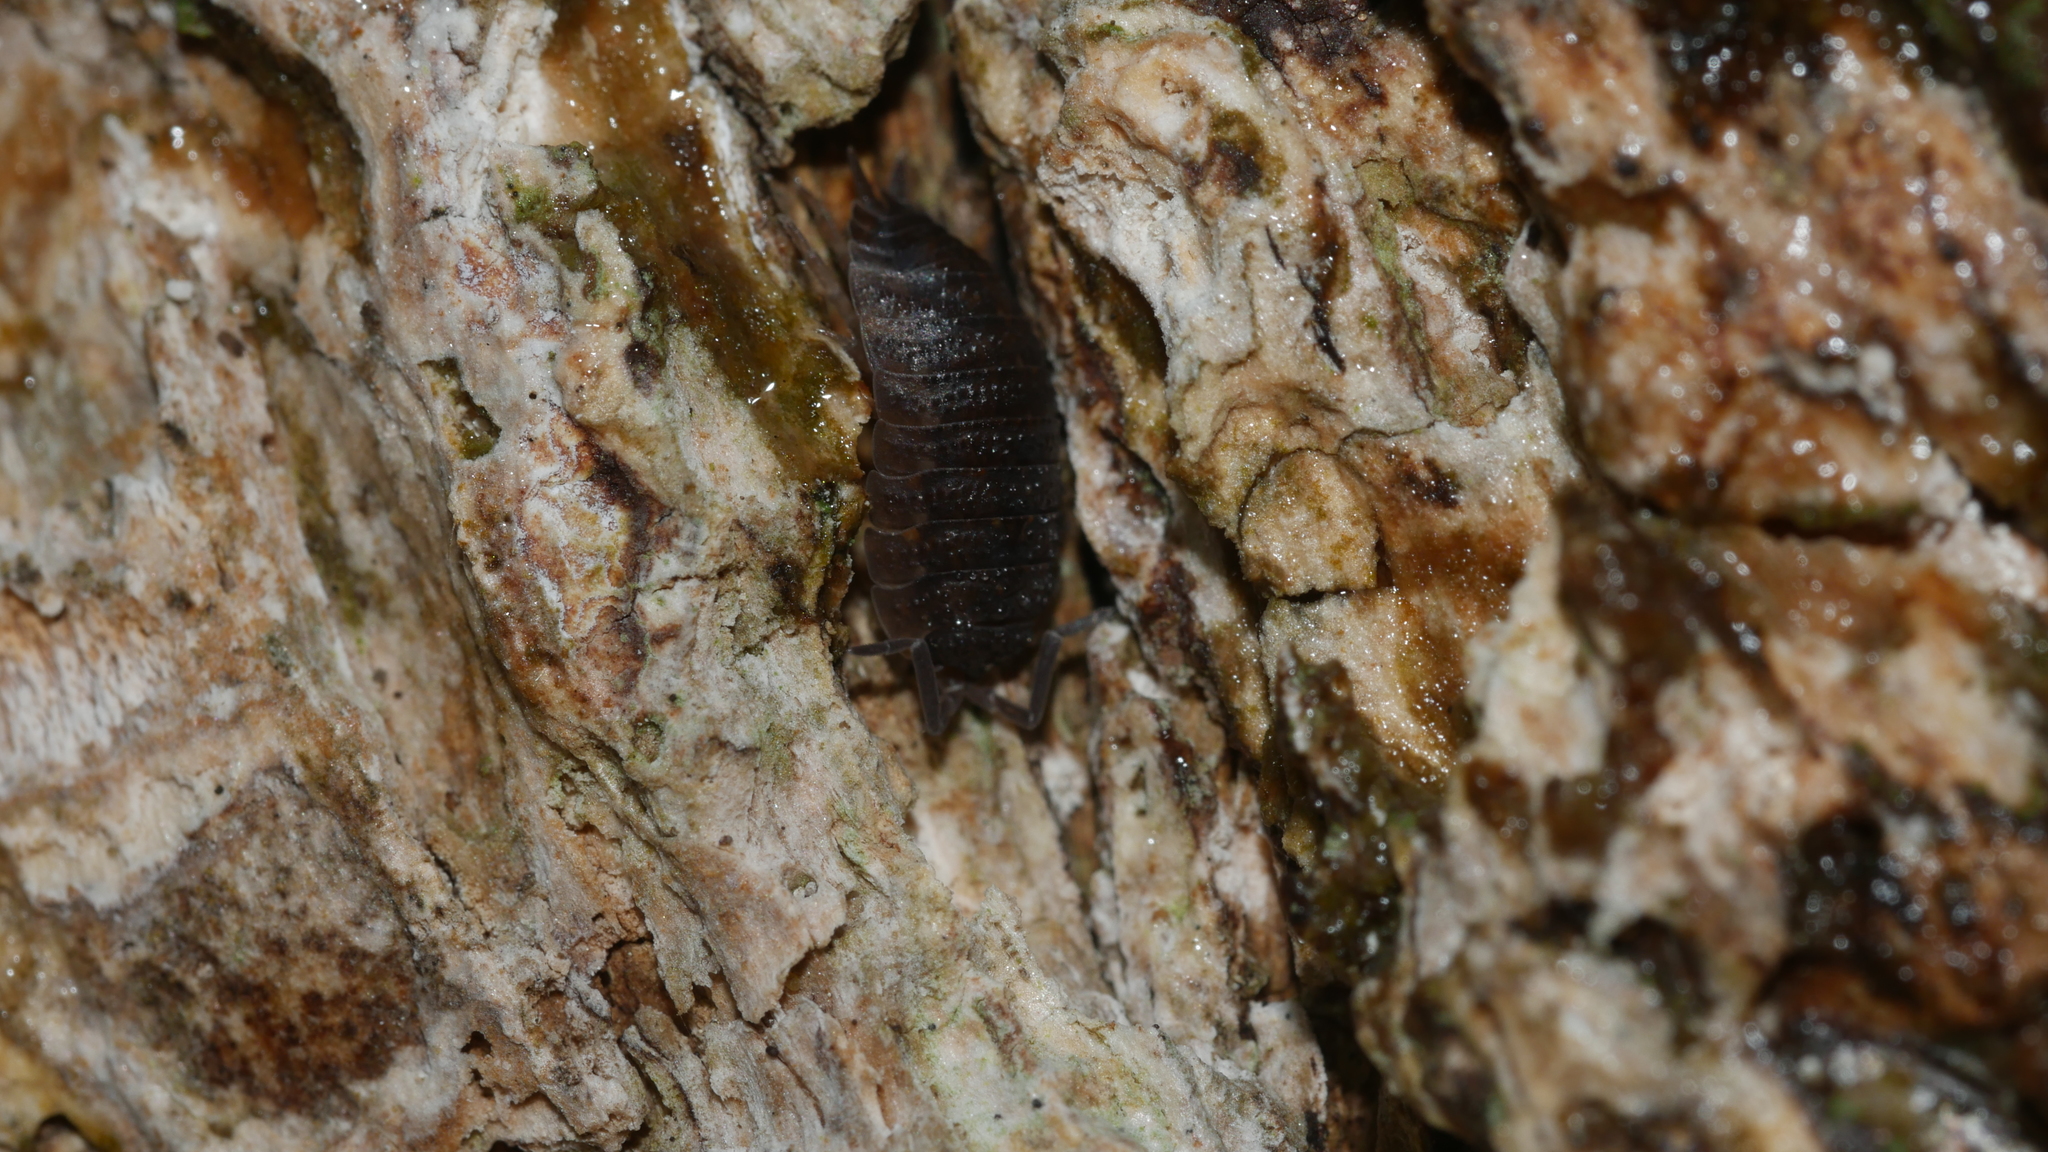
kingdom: Animalia
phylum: Arthropoda
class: Malacostraca
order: Isopoda
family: Porcellionidae
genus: Porcellio
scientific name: Porcellio scaber
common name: Common rough woodlouse
